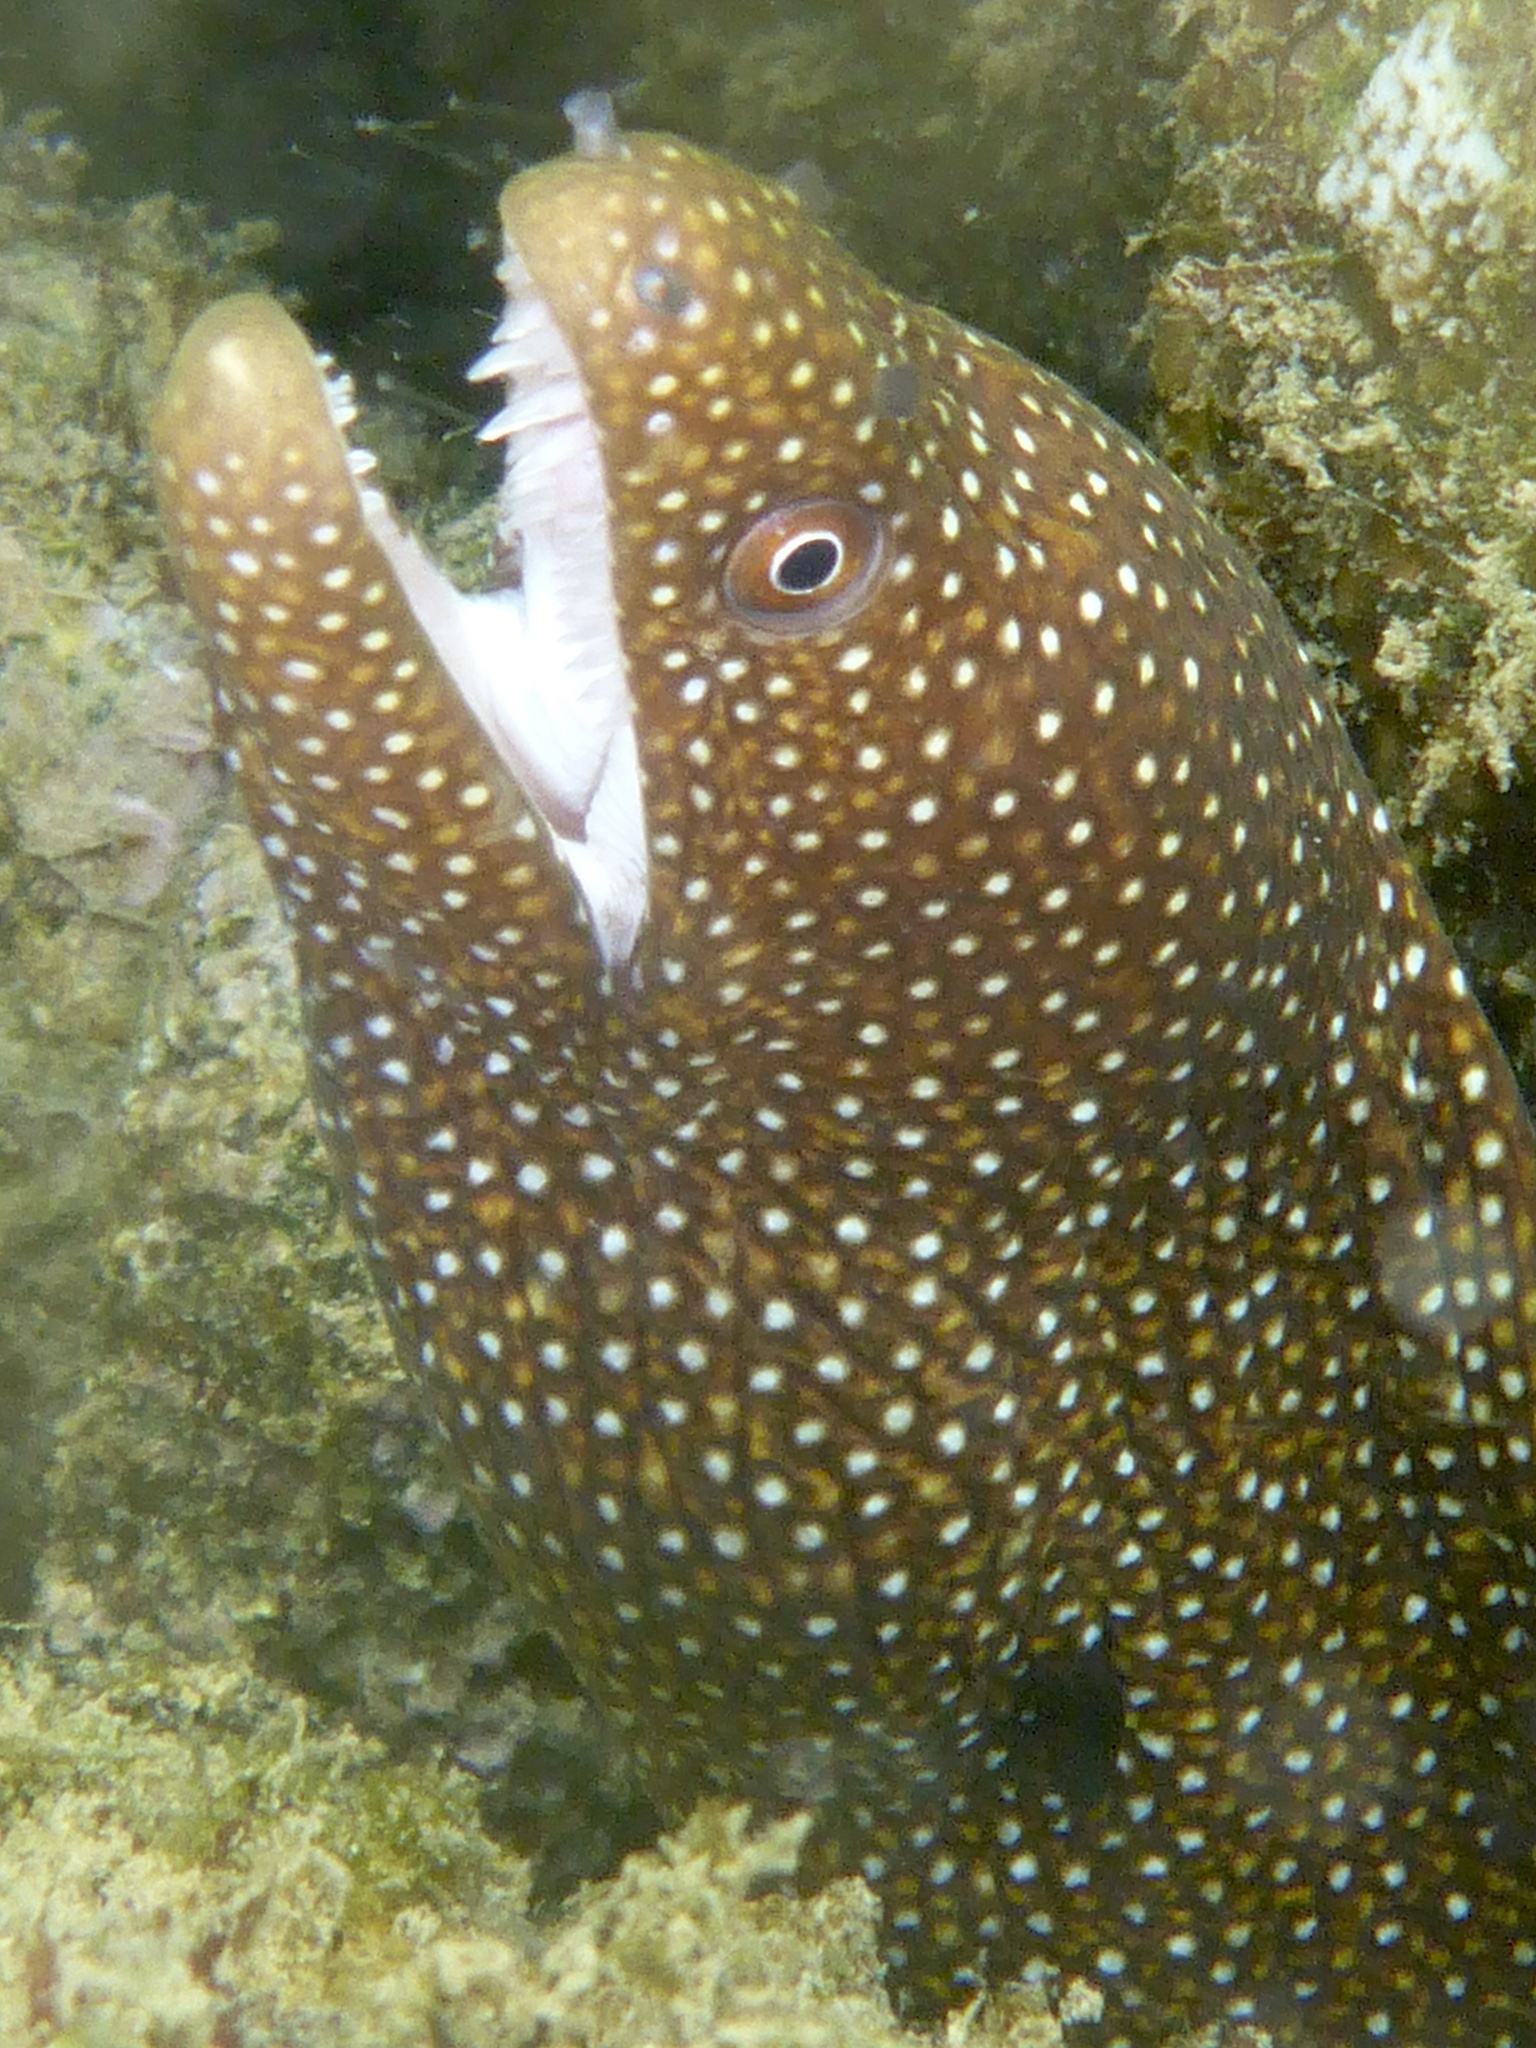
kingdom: Animalia
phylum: Chordata
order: Anguilliformes
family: Muraenidae
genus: Gymnothorax
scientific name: Gymnothorax meleagris
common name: Guineafowl moray
